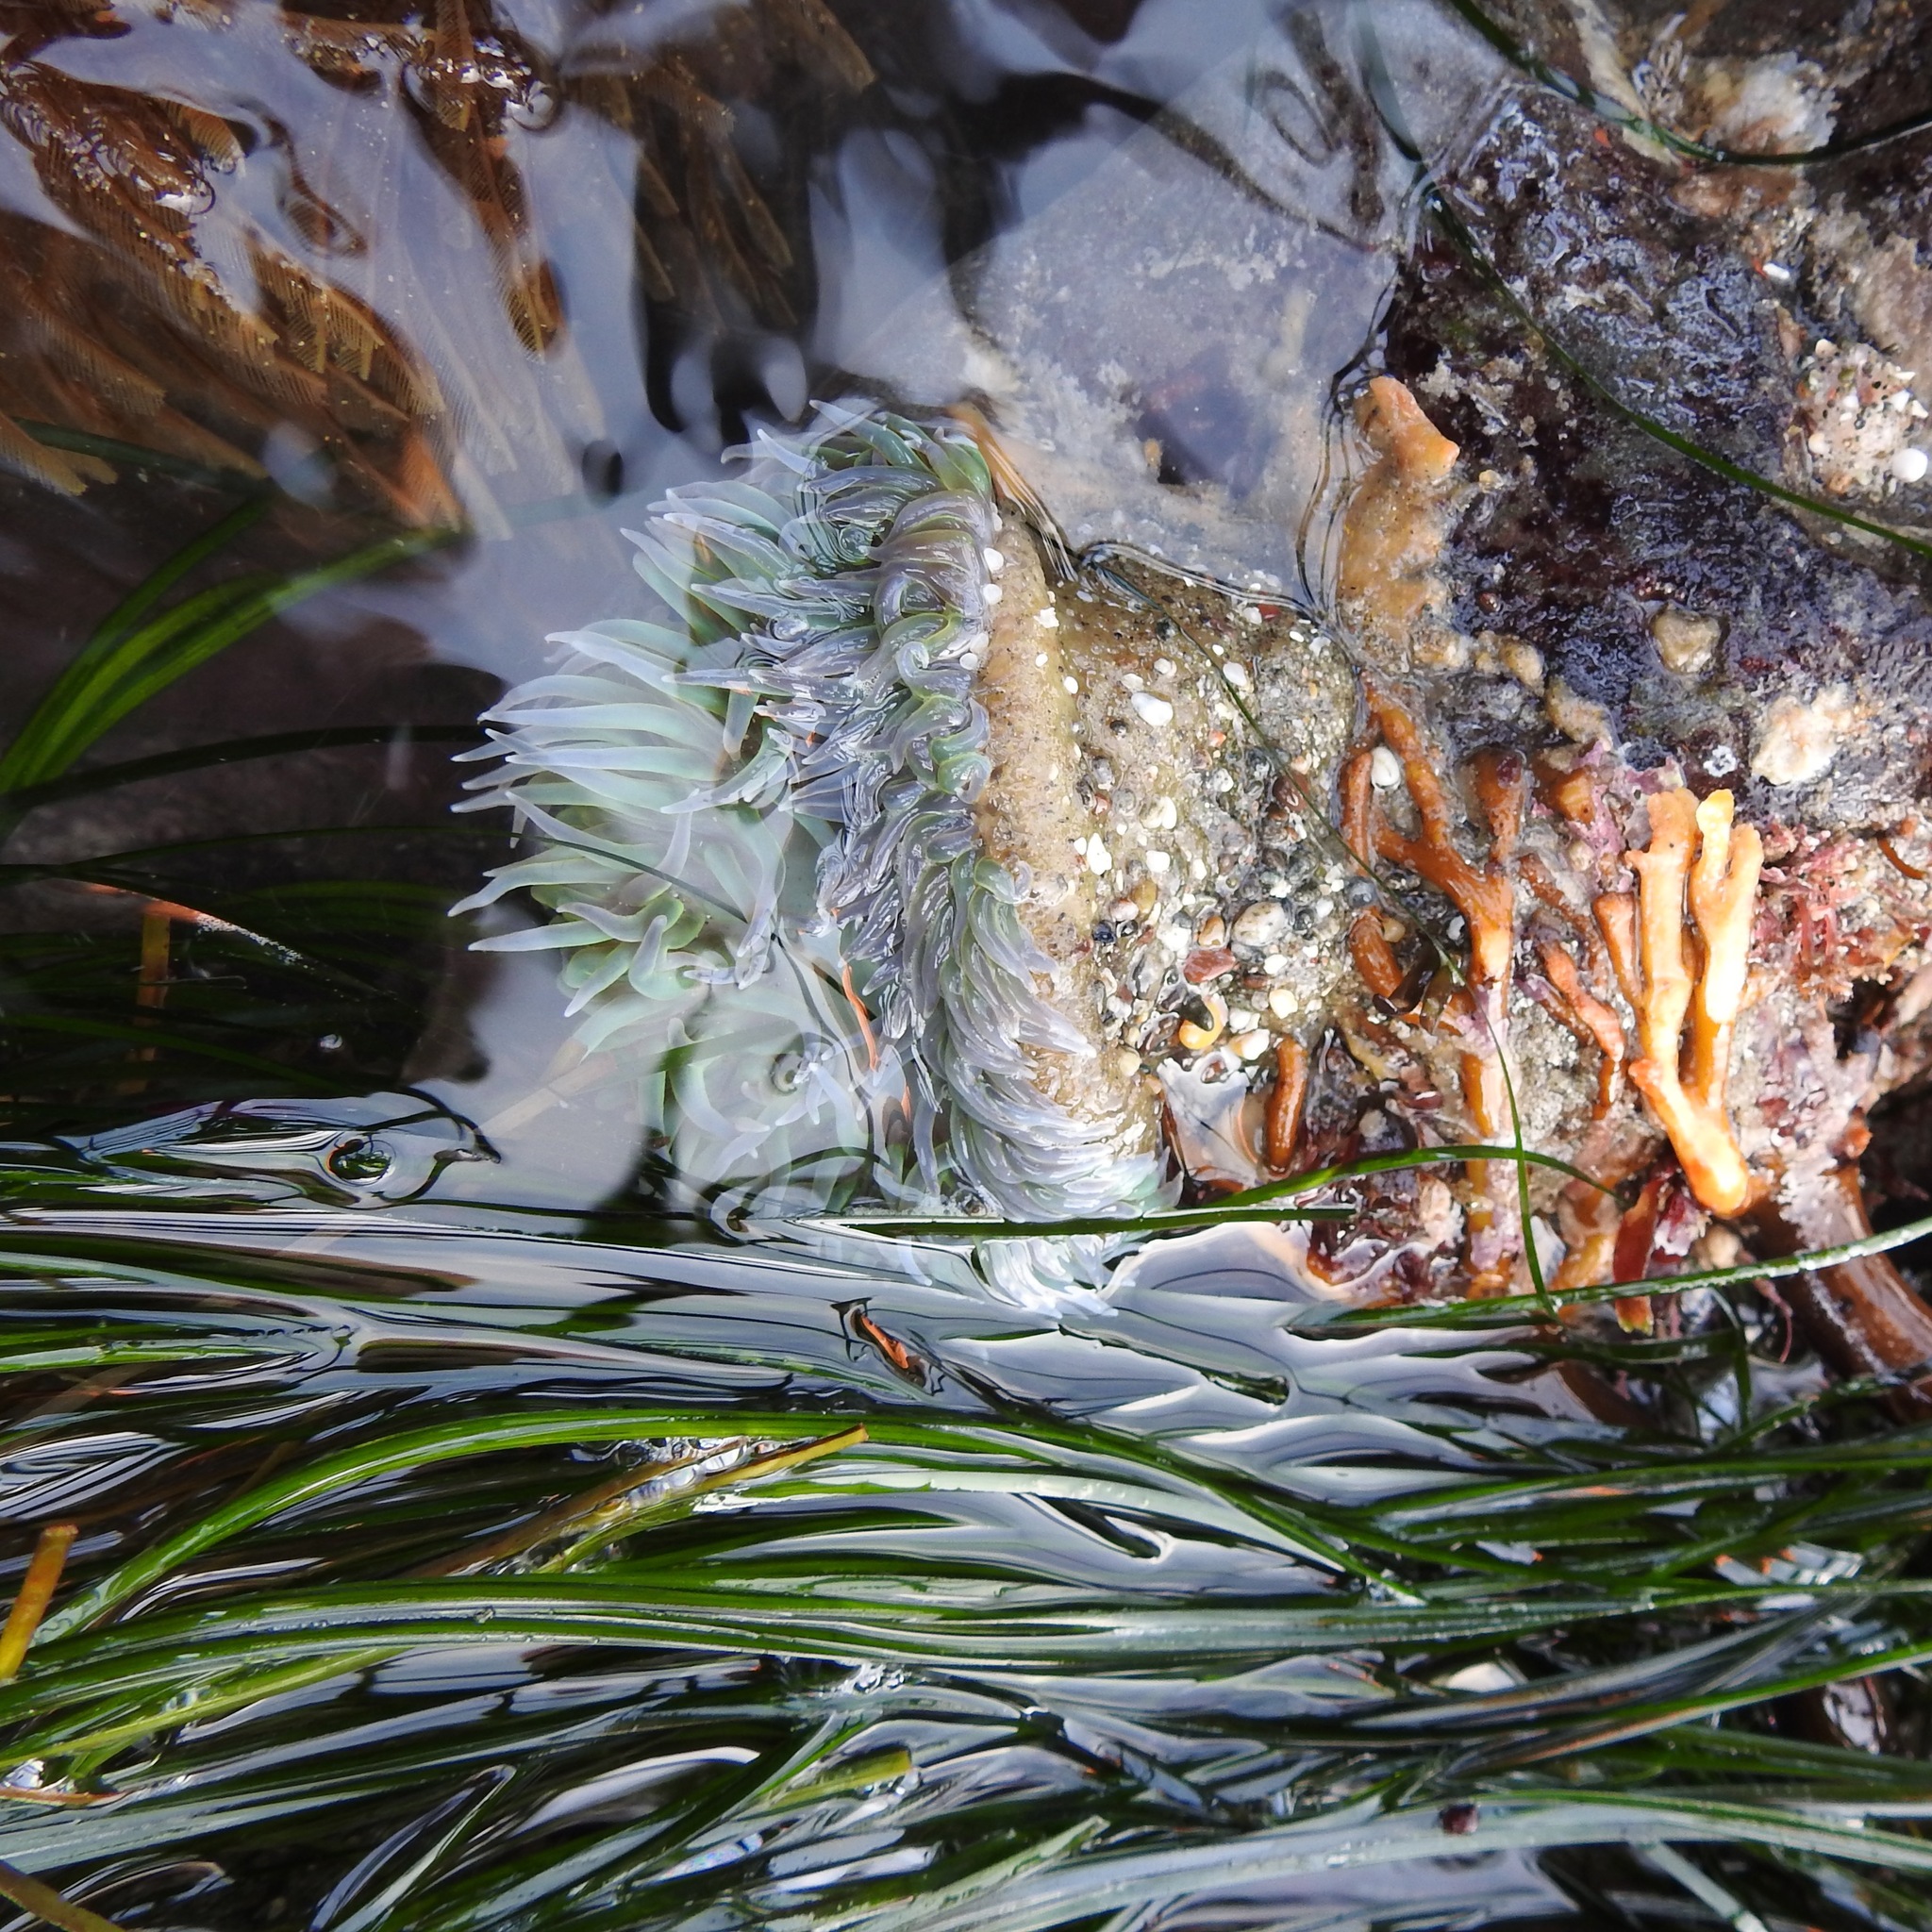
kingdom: Plantae
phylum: Tracheophyta
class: Liliopsida
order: Alismatales
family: Zosteraceae
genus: Phyllospadix
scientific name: Phyllospadix torreyi
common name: Surfgrass
